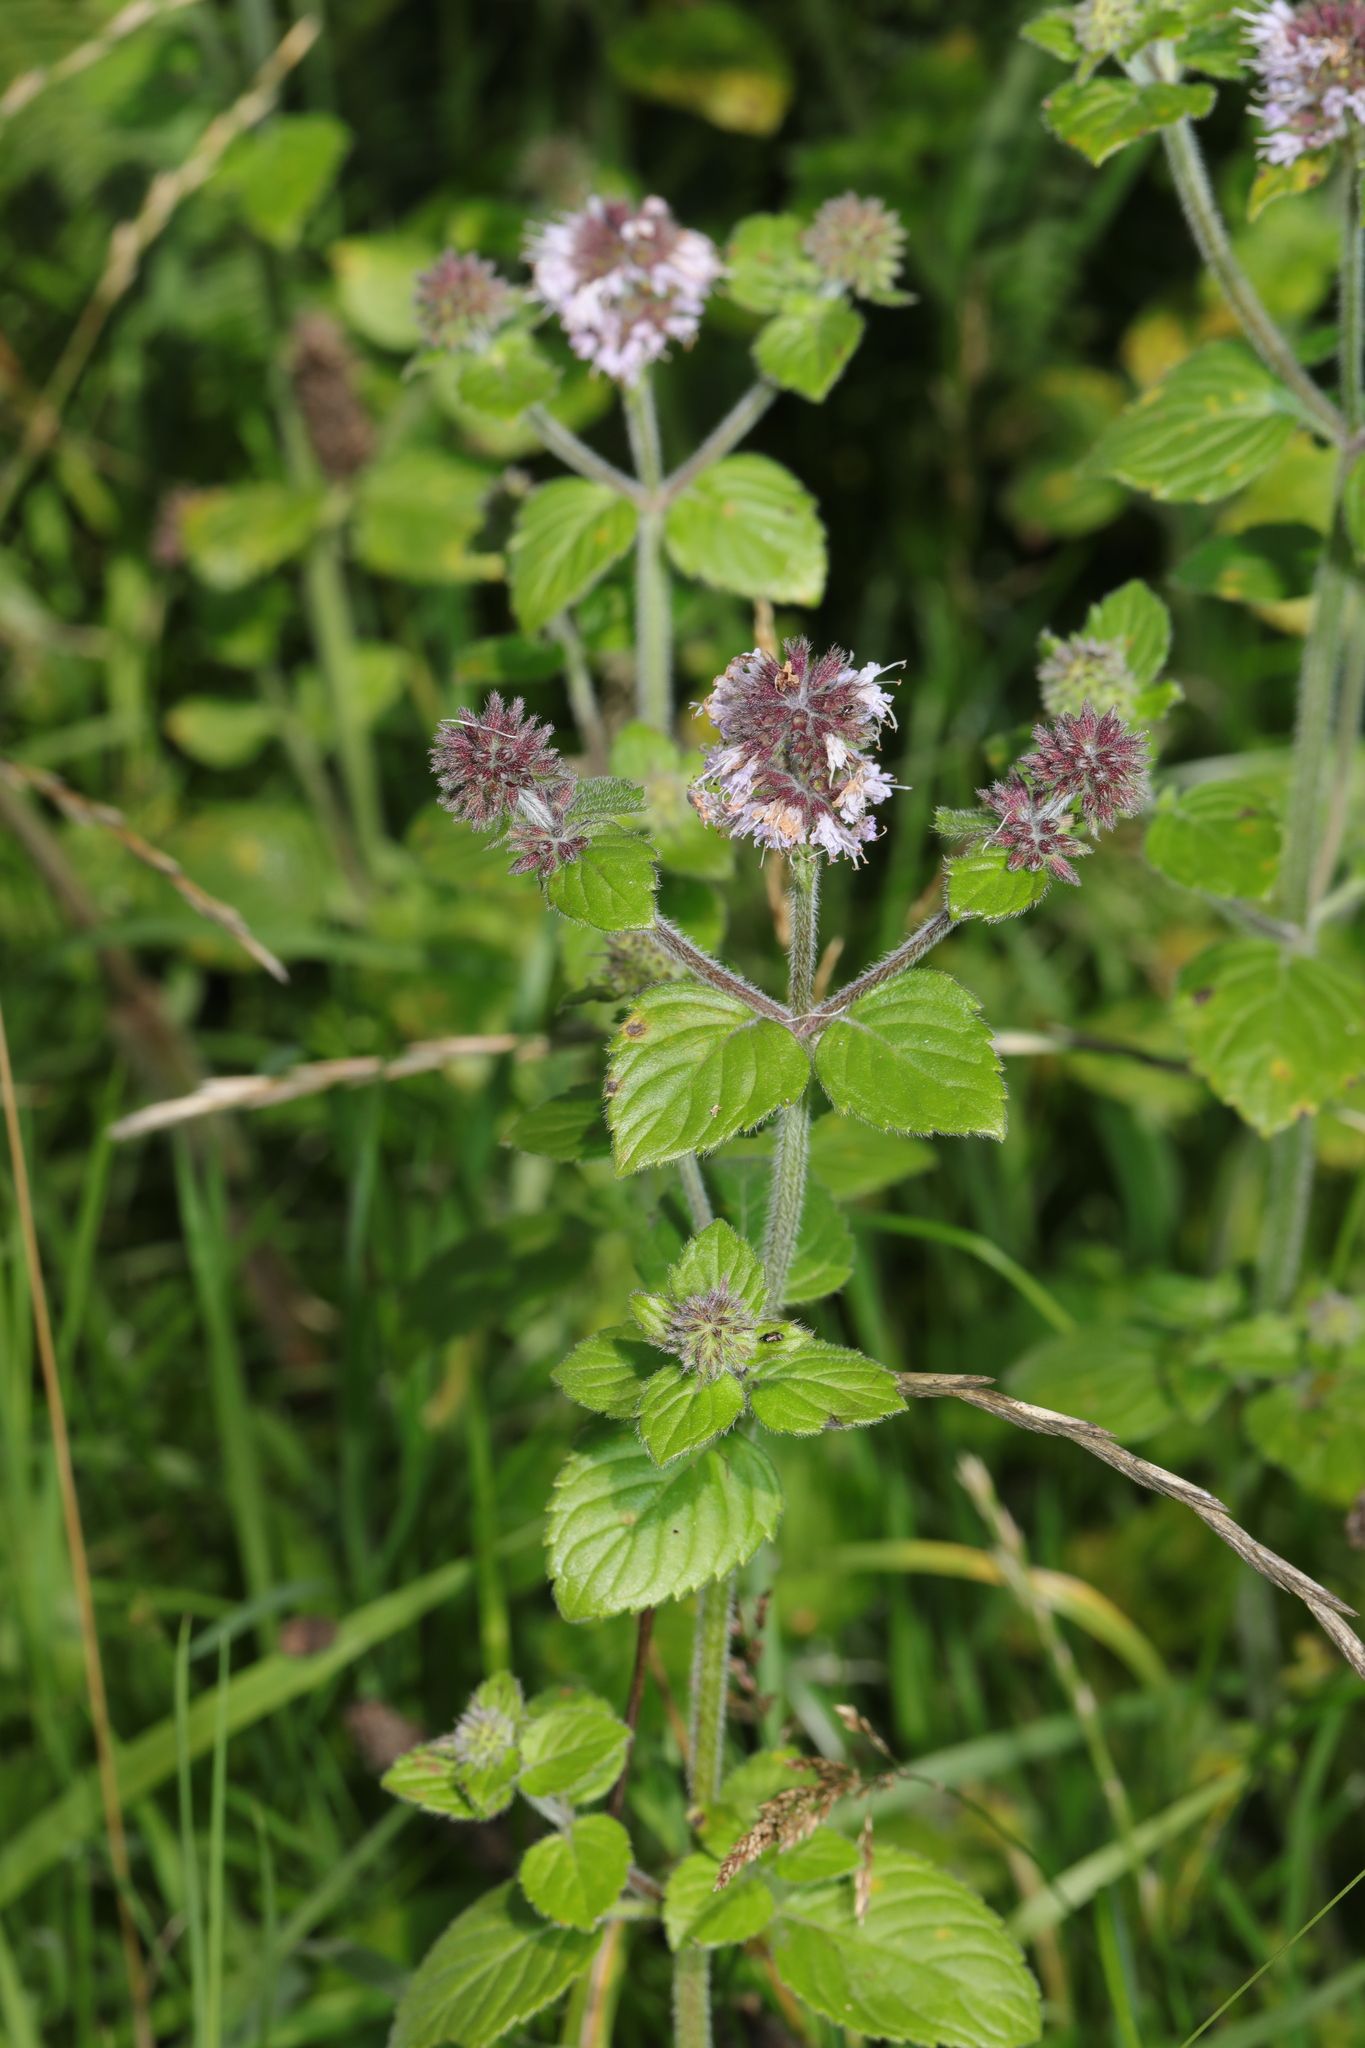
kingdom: Plantae
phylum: Tracheophyta
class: Magnoliopsida
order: Lamiales
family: Lamiaceae
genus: Mentha
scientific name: Mentha aquatica
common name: Water mint
